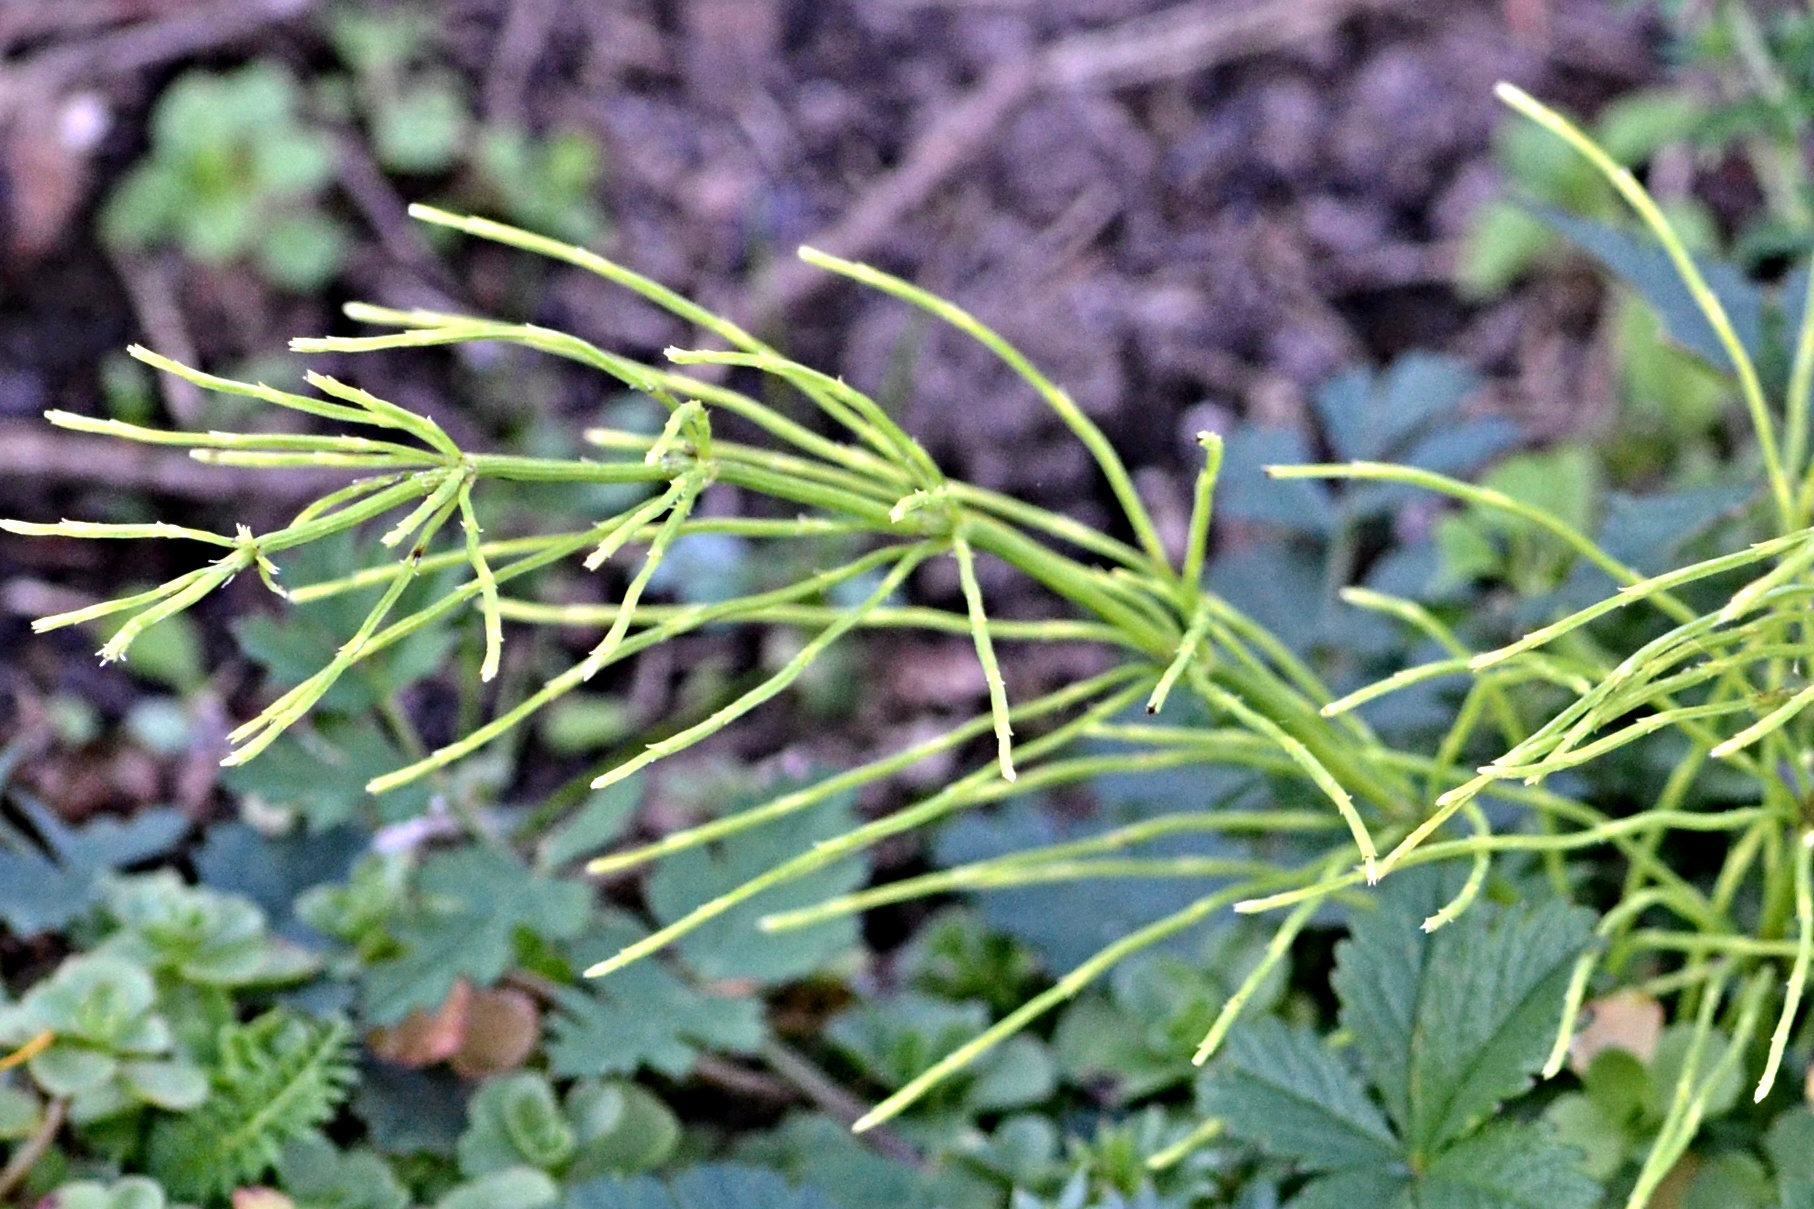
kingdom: Plantae
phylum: Tracheophyta
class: Polypodiopsida
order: Equisetales
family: Equisetaceae
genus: Equisetum
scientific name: Equisetum arvense
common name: Field horsetail
